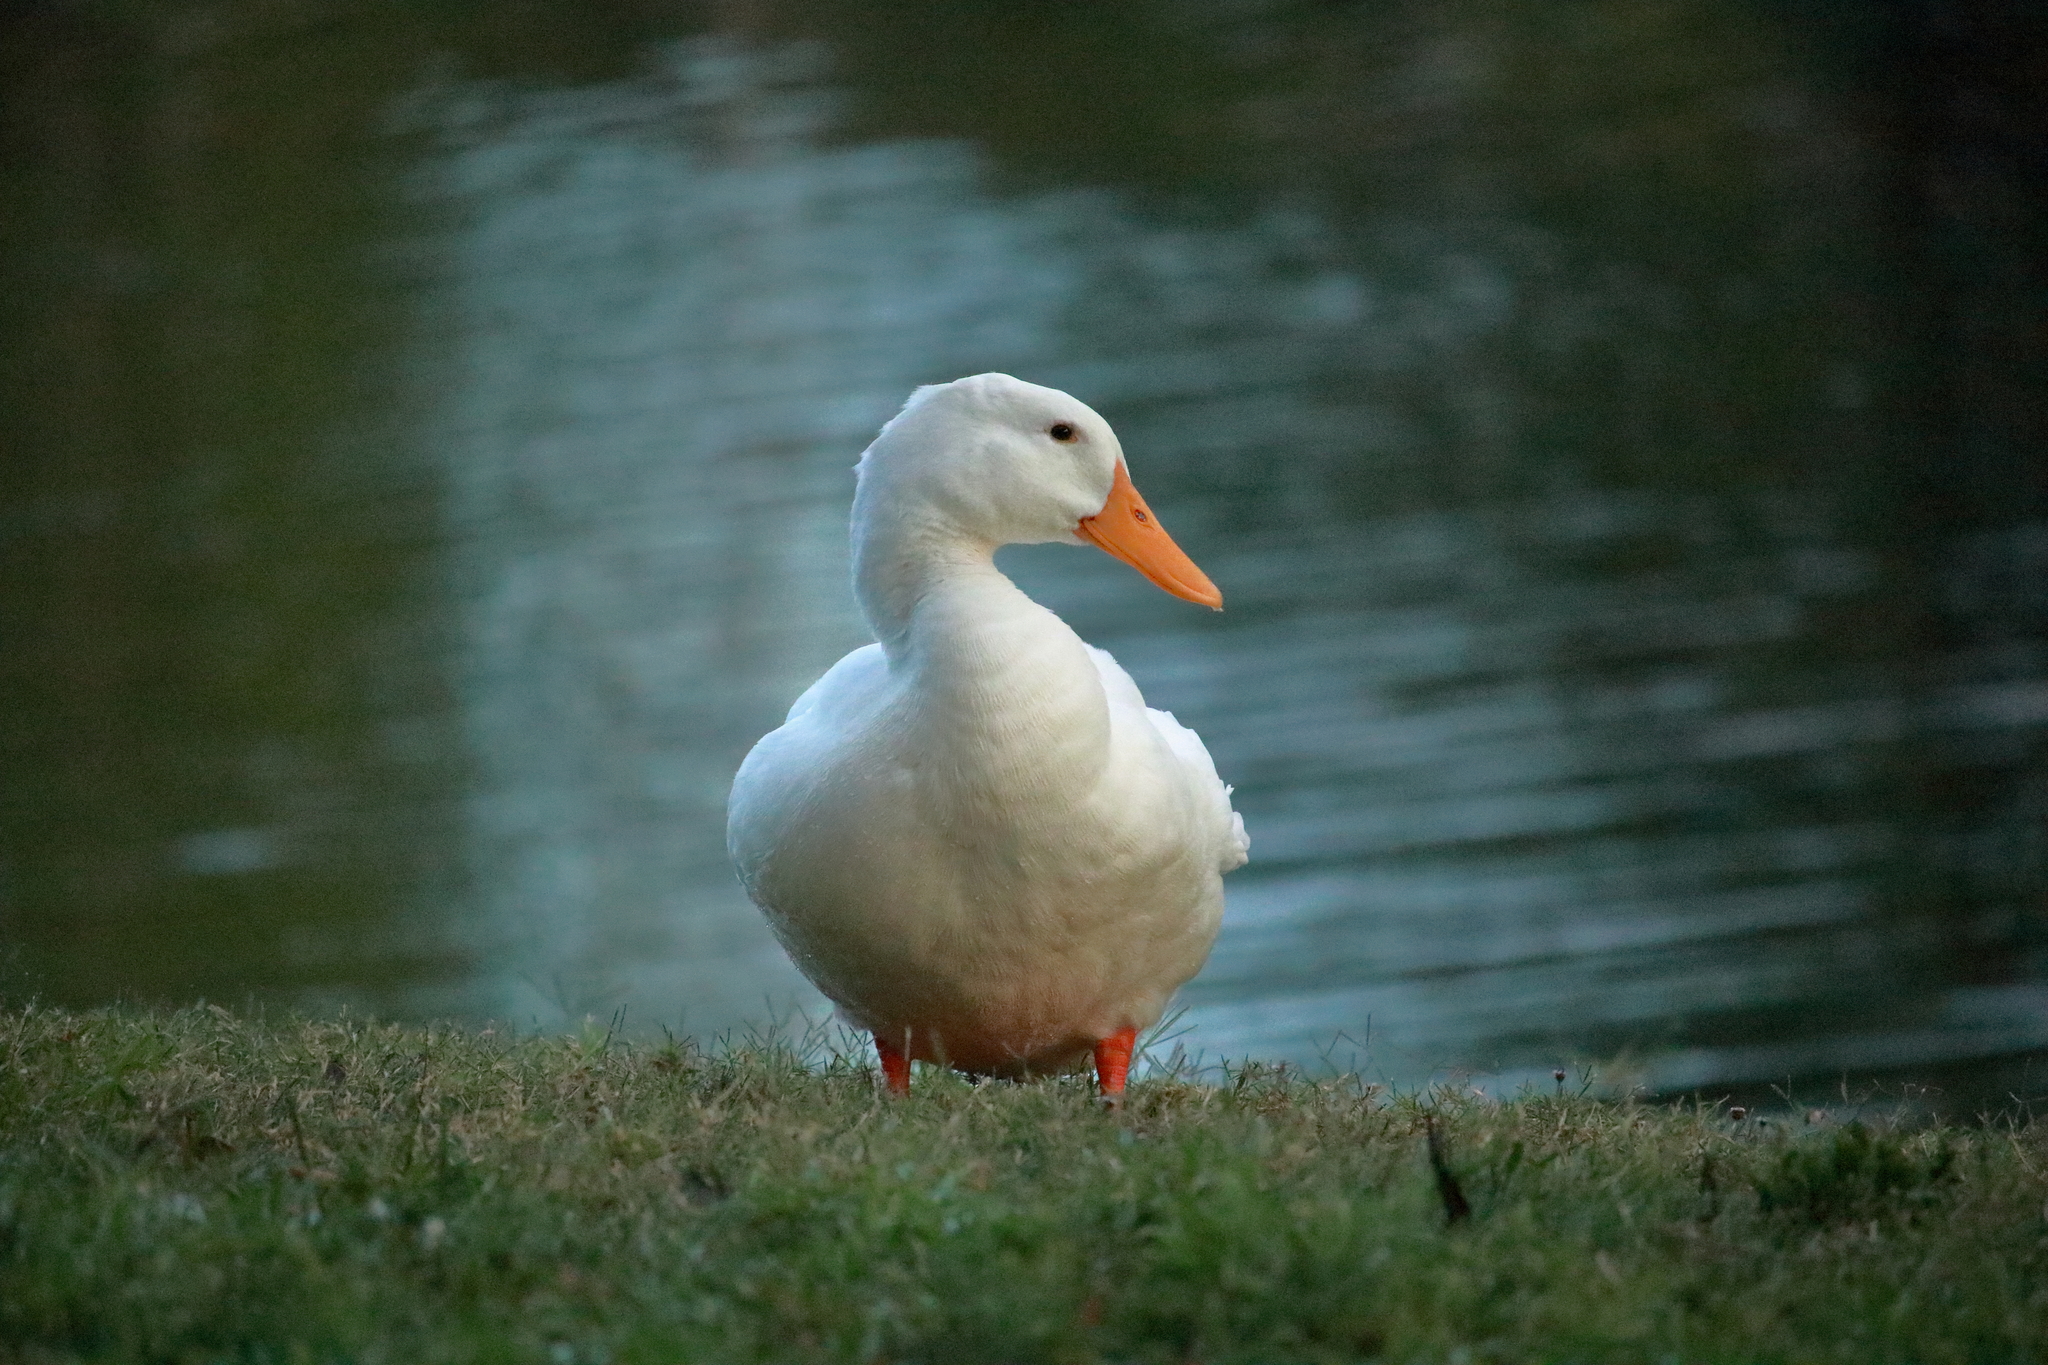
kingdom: Animalia
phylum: Chordata
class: Aves
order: Anseriformes
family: Anatidae
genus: Anas
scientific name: Anas platyrhynchos
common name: Mallard
